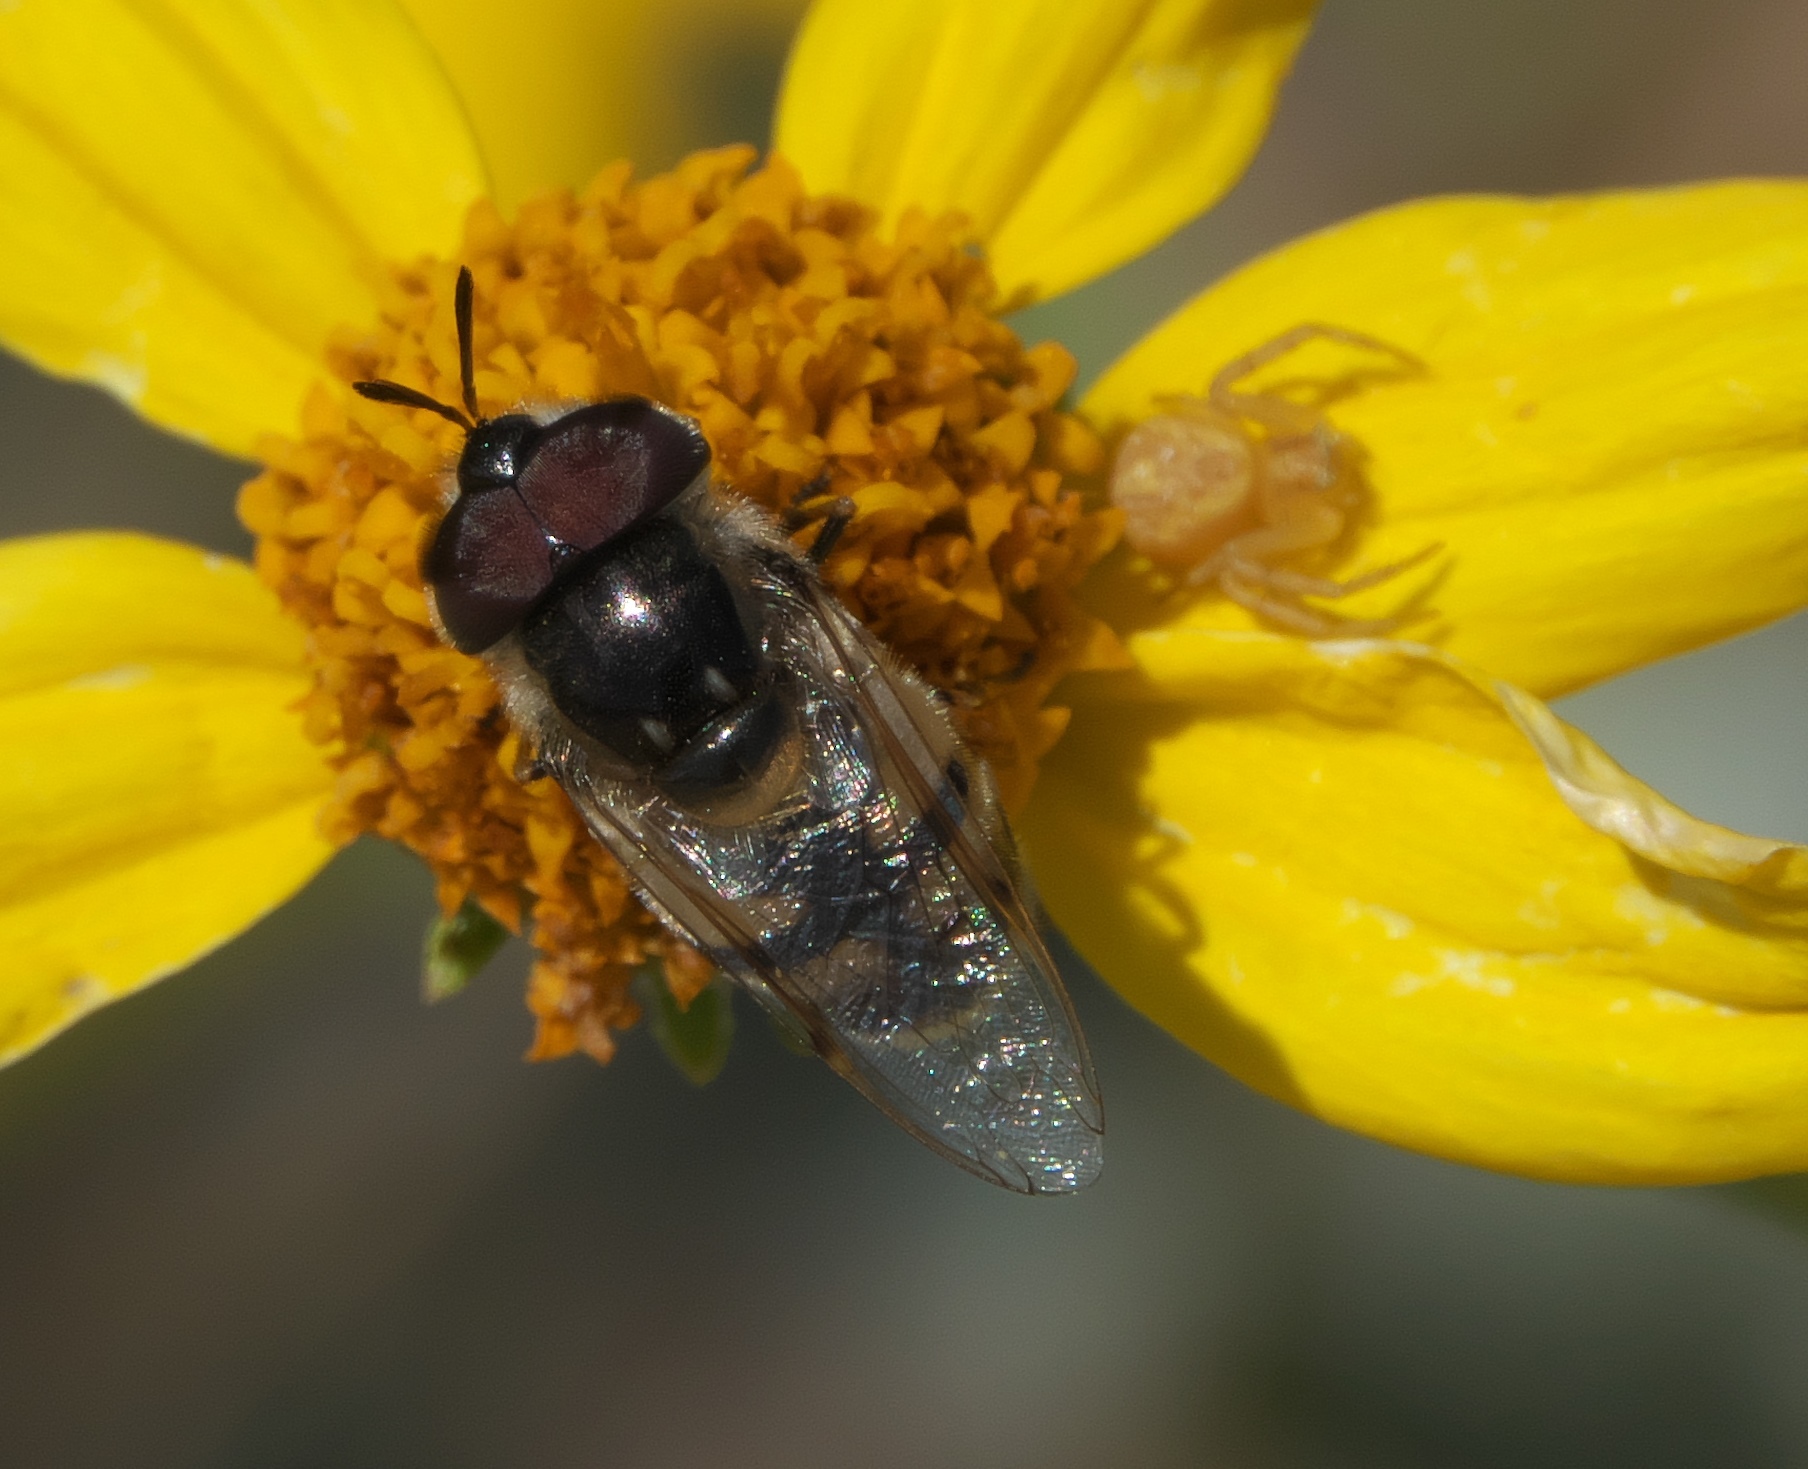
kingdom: Animalia
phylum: Arthropoda
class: Insecta
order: Diptera
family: Syrphidae
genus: Copestylum
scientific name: Copestylum marginatum
